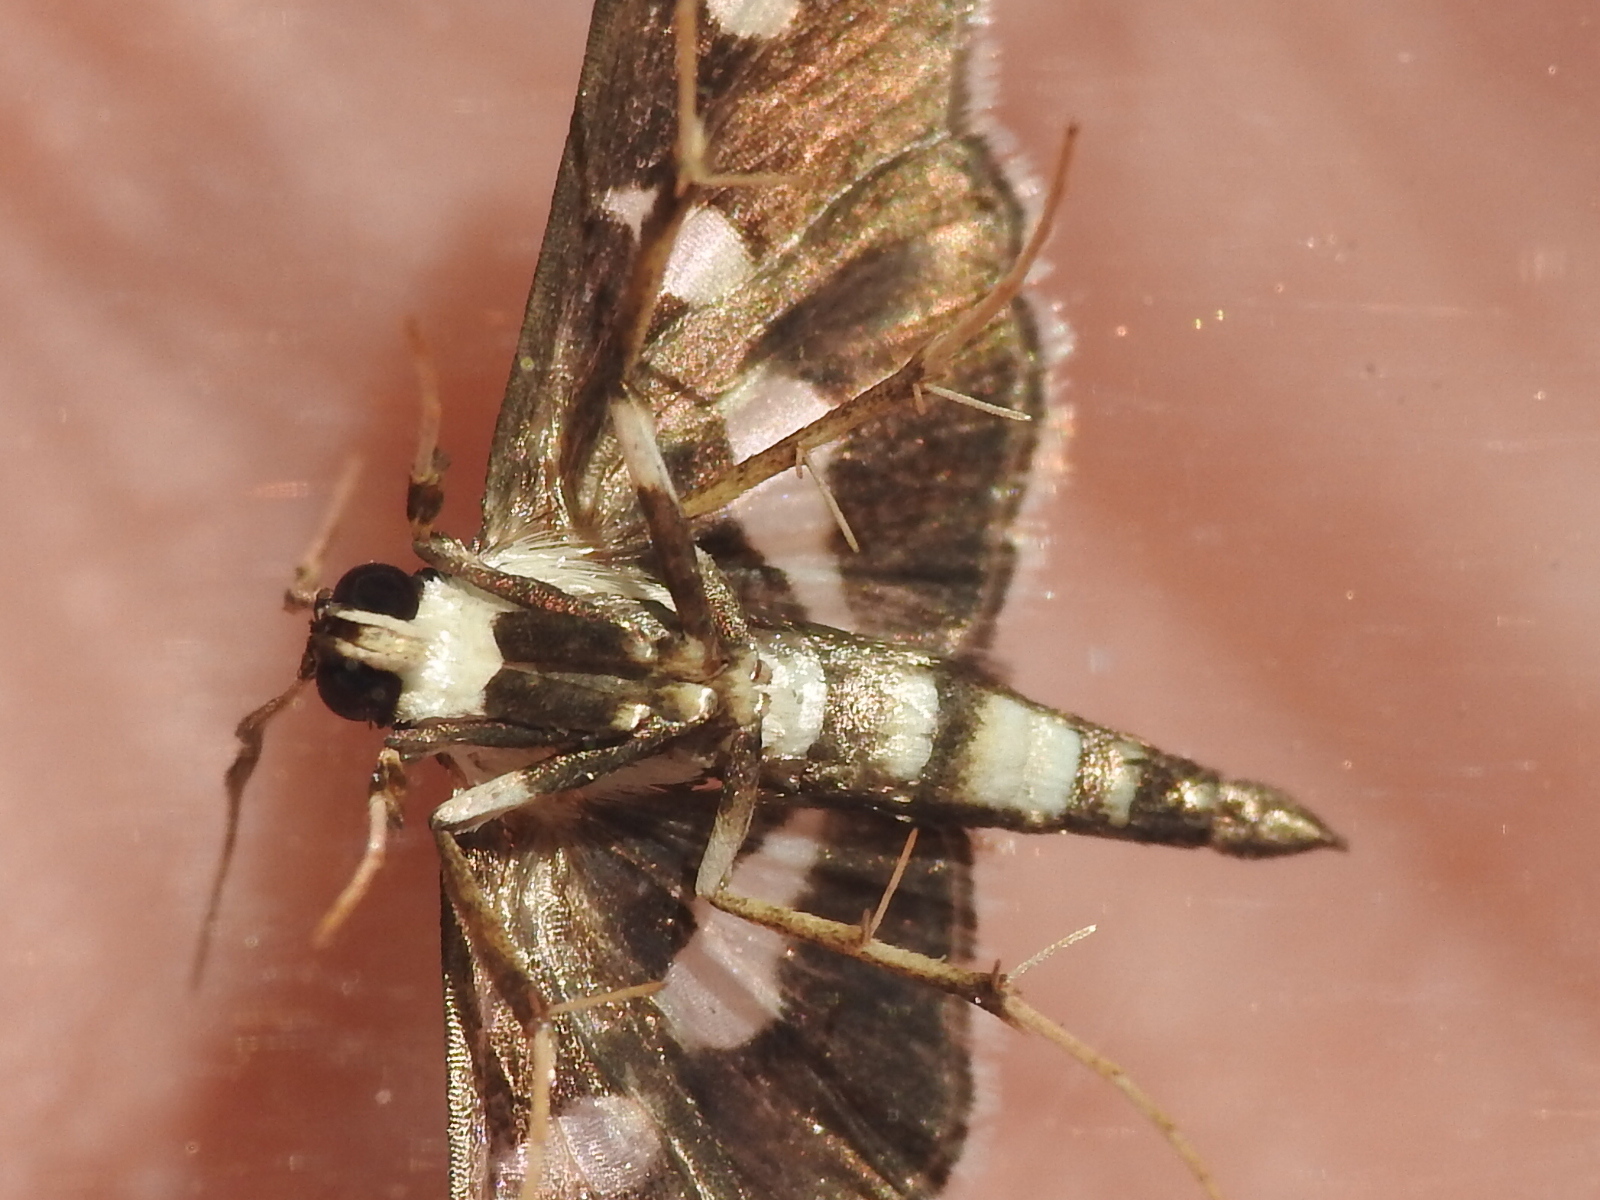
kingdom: Animalia
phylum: Arthropoda
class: Insecta
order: Lepidoptera
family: Crambidae
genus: Desmia
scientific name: Desmia funeralis
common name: Grape leaf folder moth
